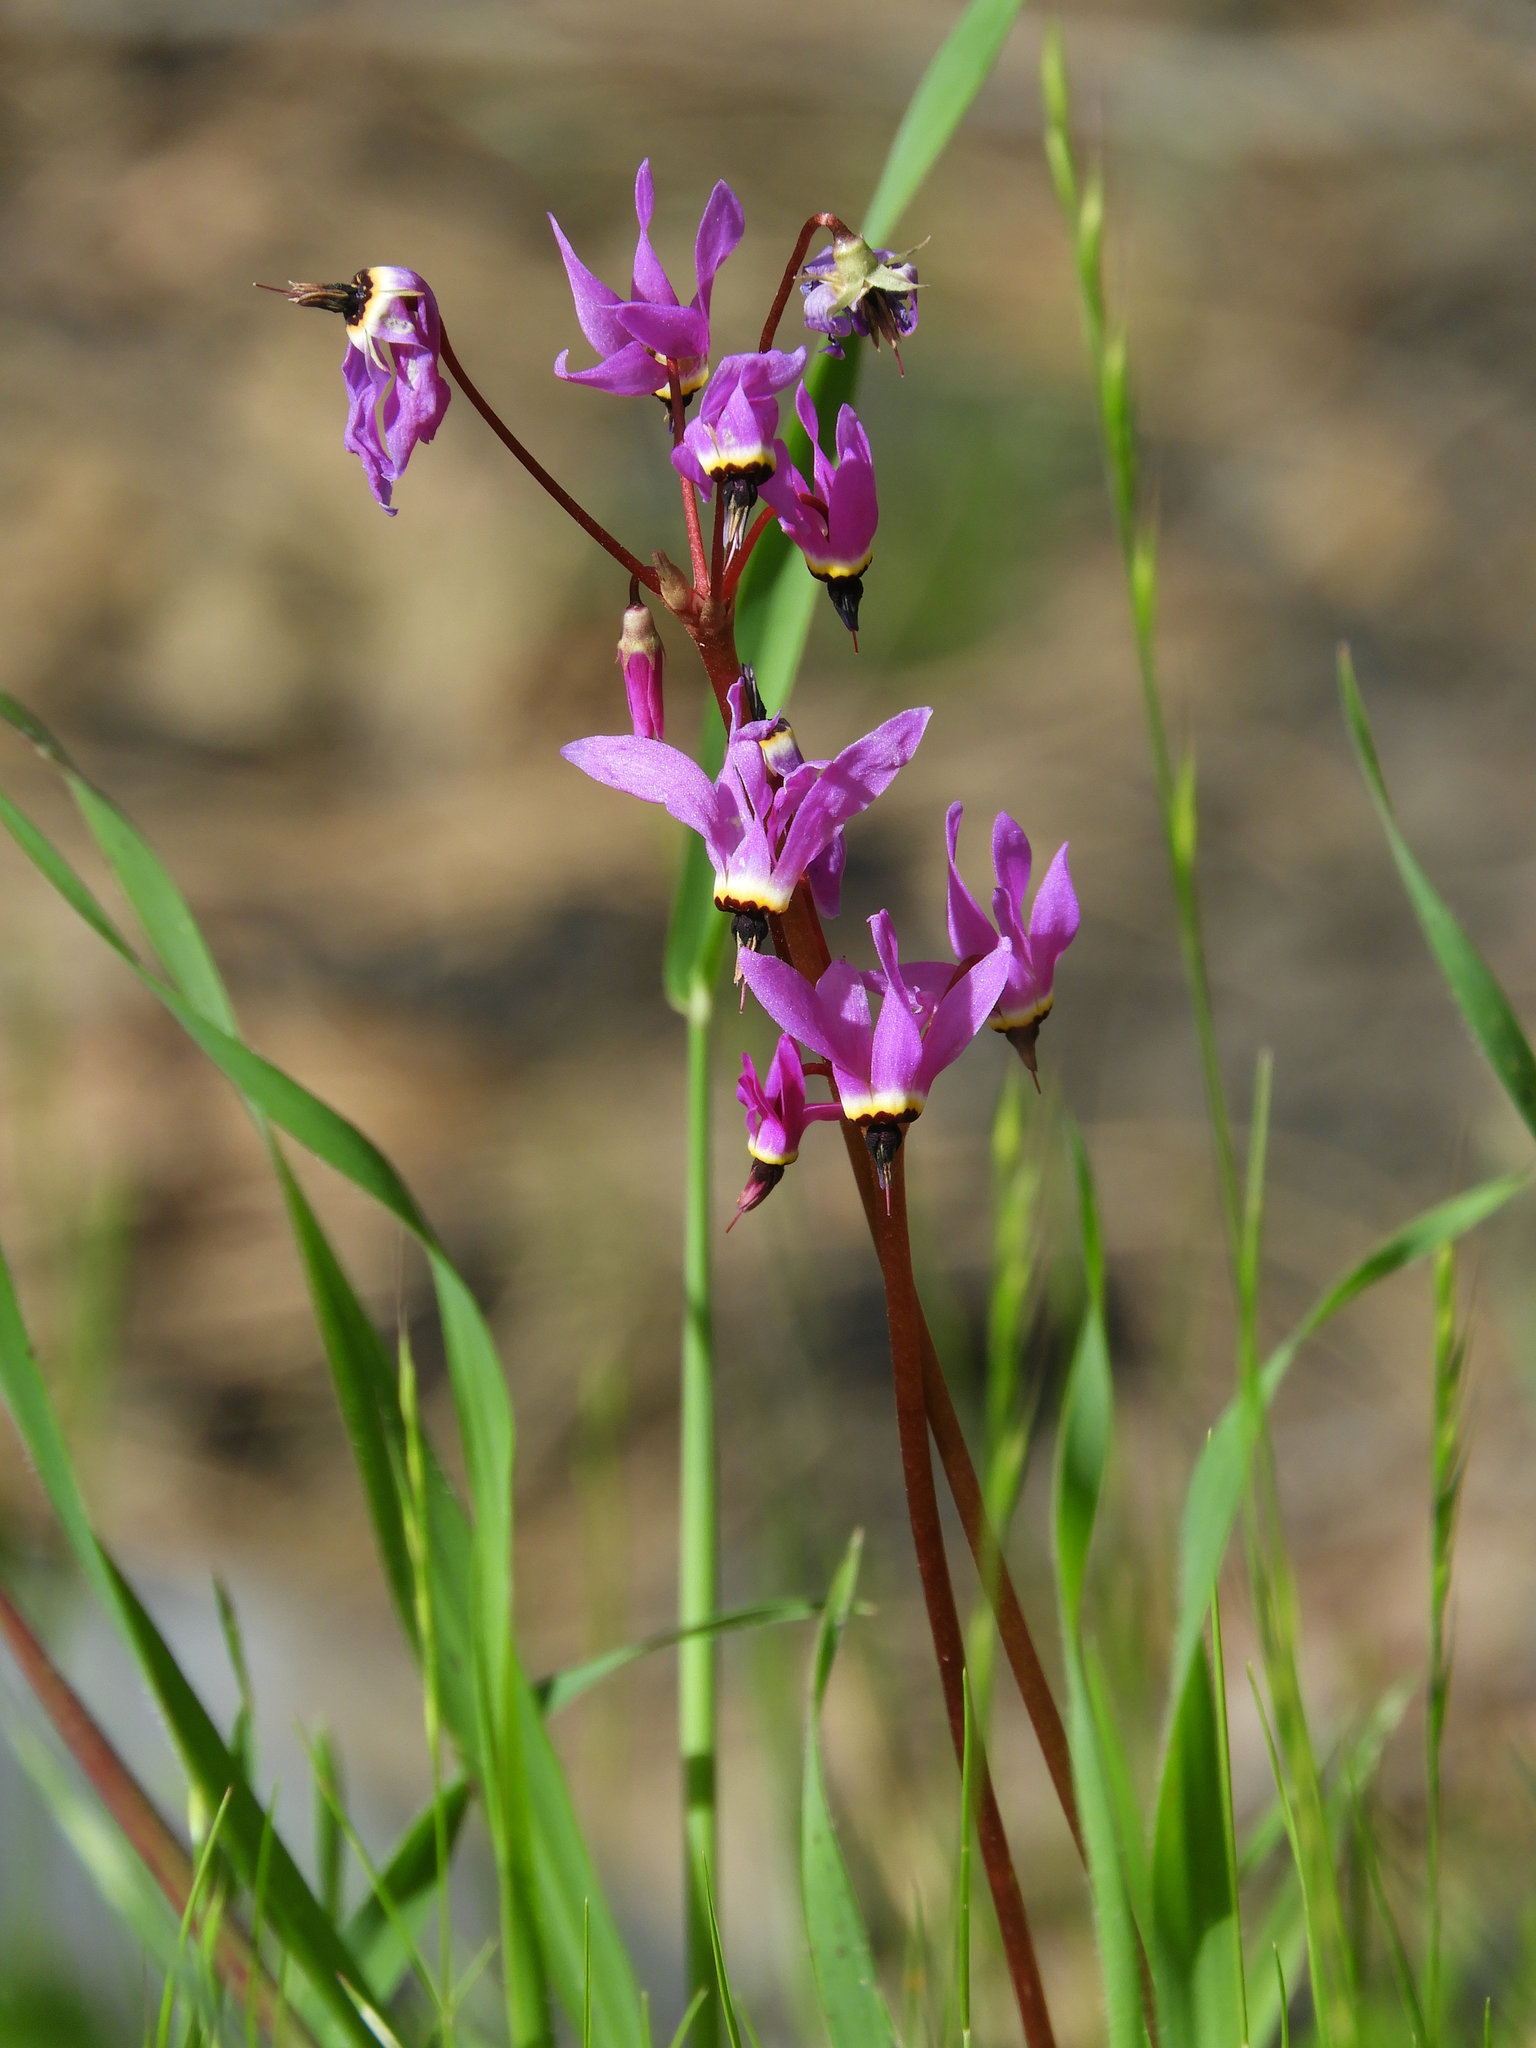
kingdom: Plantae
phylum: Tracheophyta
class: Magnoliopsida
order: Ericales
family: Primulaceae
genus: Dodecatheon
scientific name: Dodecatheon hendersonii
